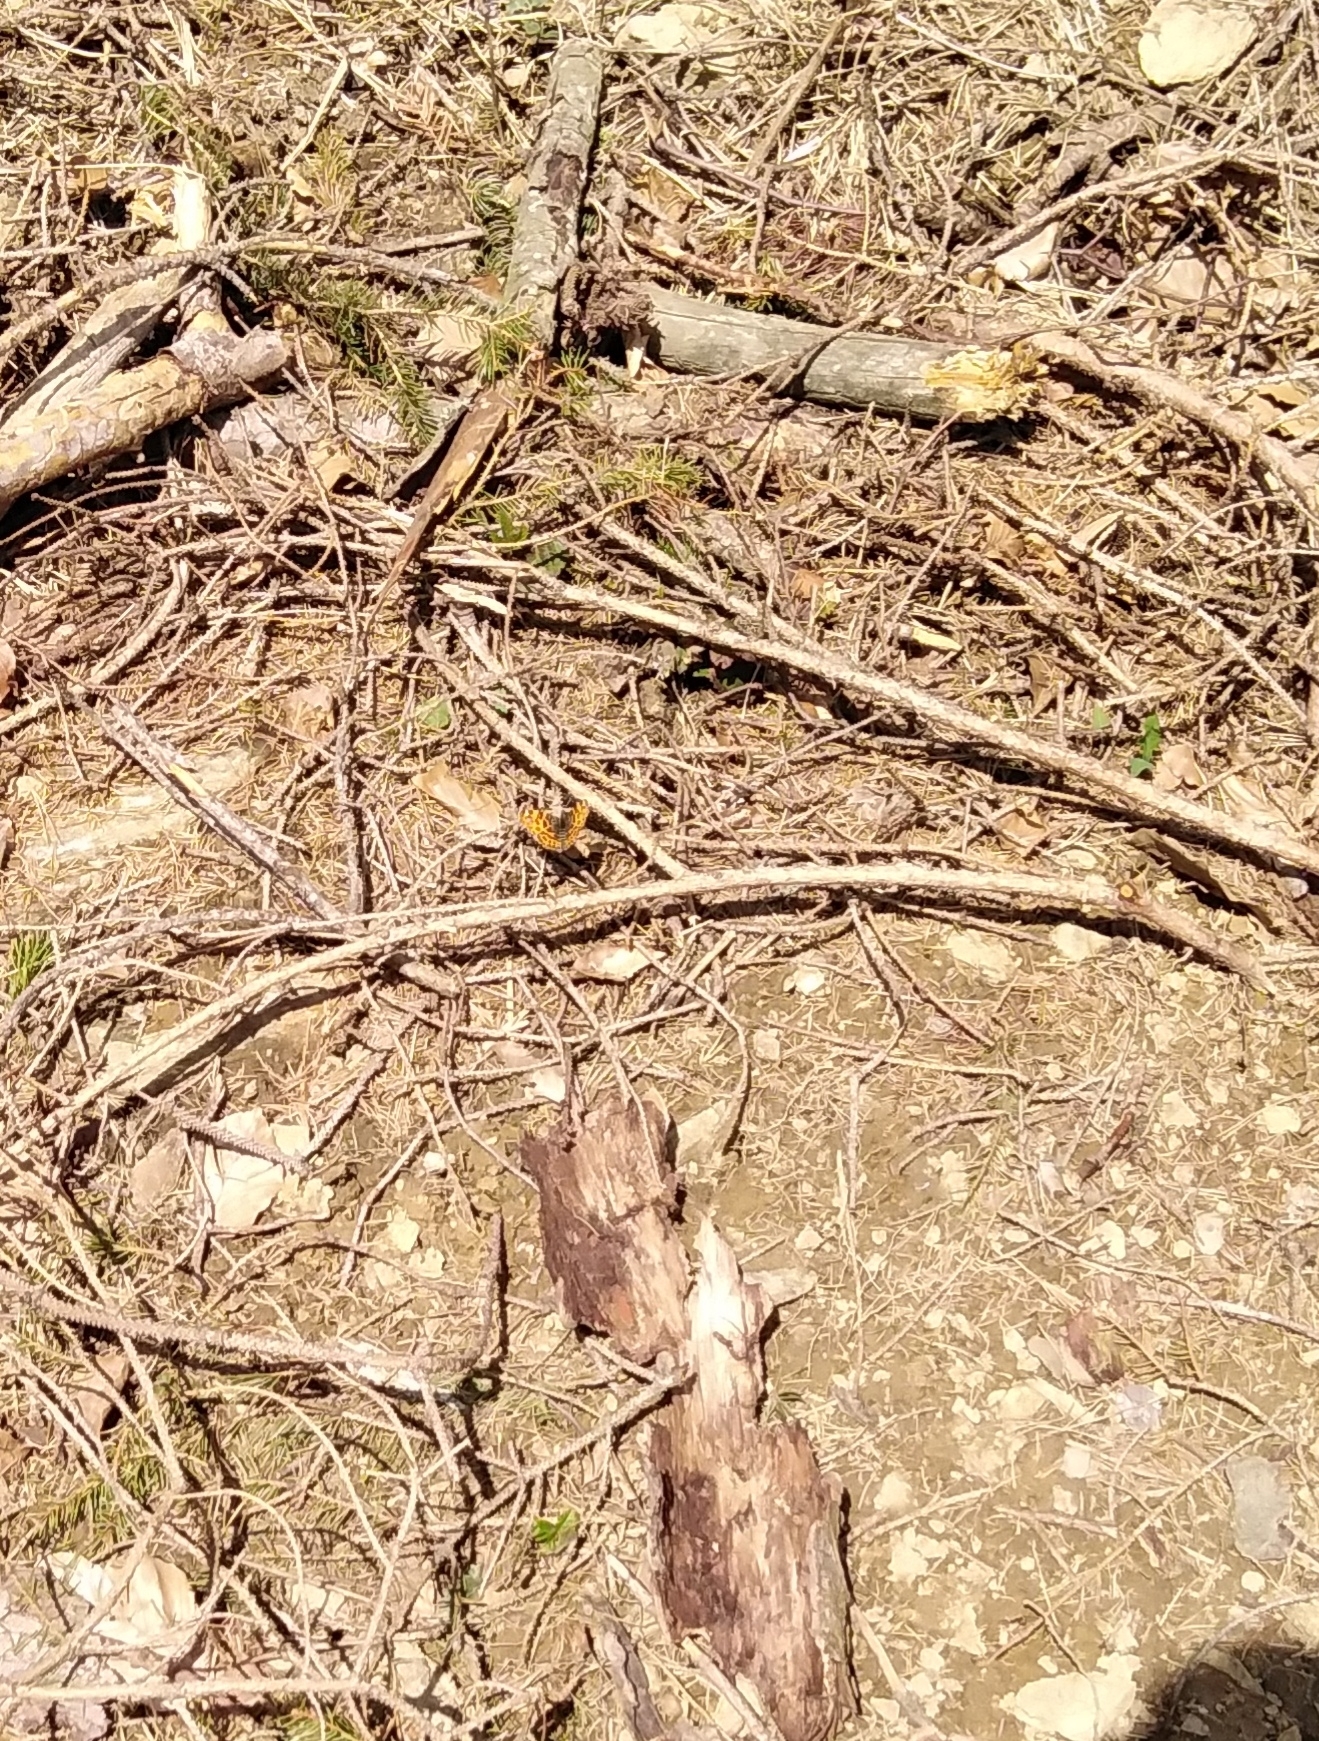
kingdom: Animalia
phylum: Arthropoda
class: Insecta
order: Lepidoptera
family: Nymphalidae
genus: Araschnia
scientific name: Araschnia levana
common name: Map butterfly
